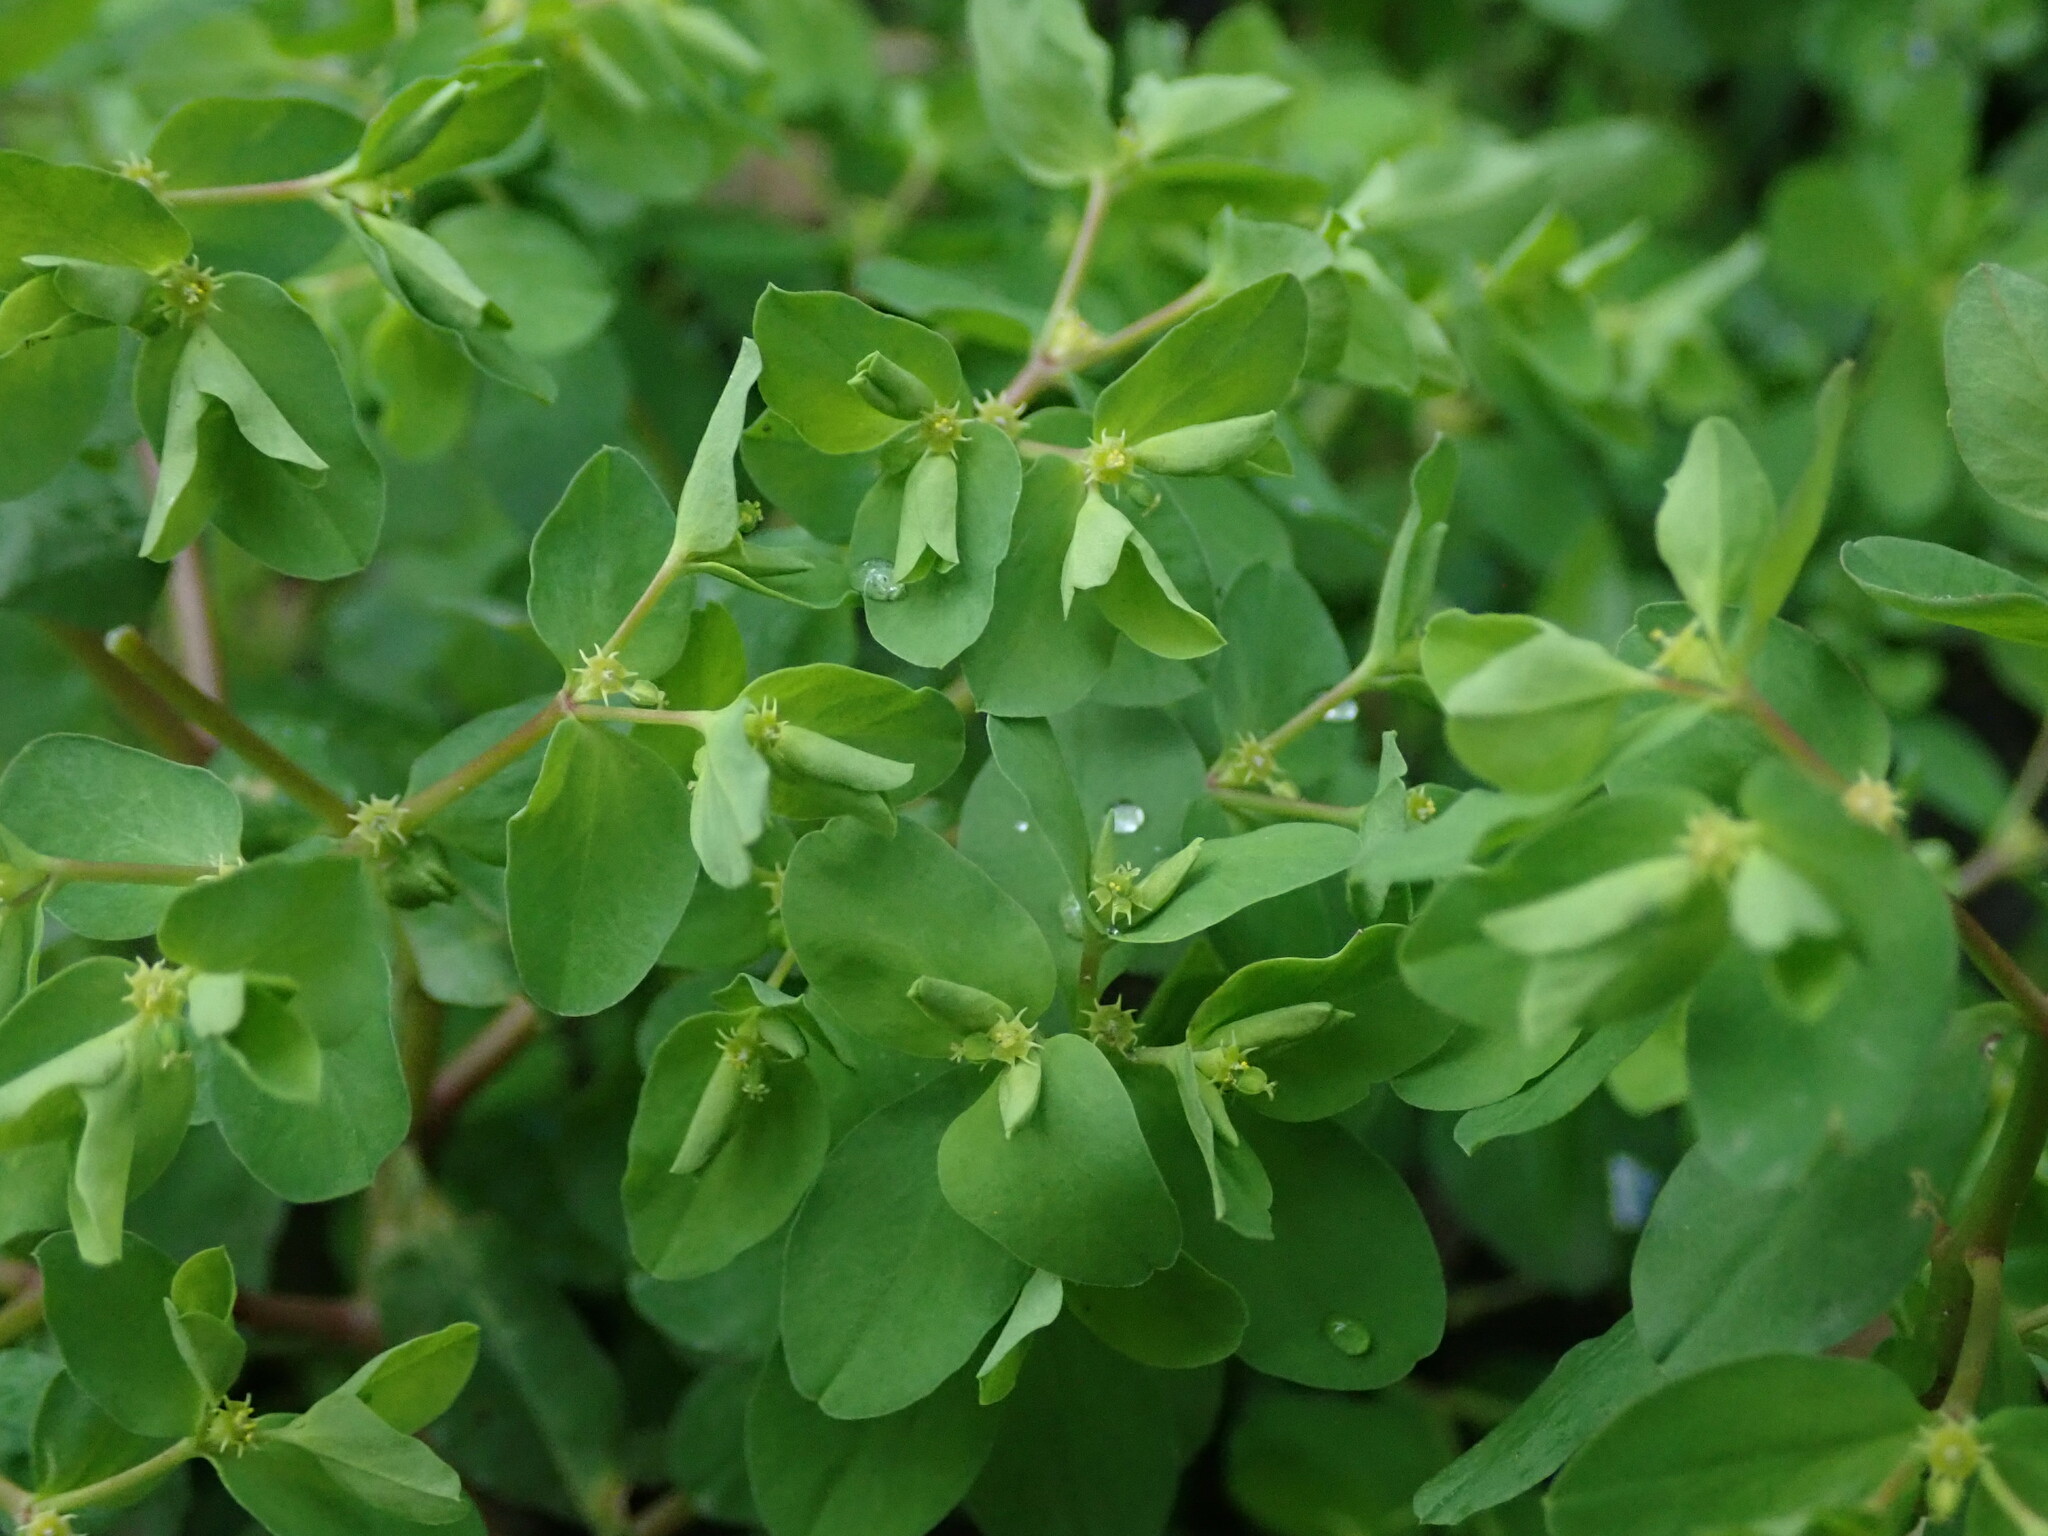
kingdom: Plantae
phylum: Tracheophyta
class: Magnoliopsida
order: Malpighiales
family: Euphorbiaceae
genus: Euphorbia
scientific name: Euphorbia peplus
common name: Petty spurge
